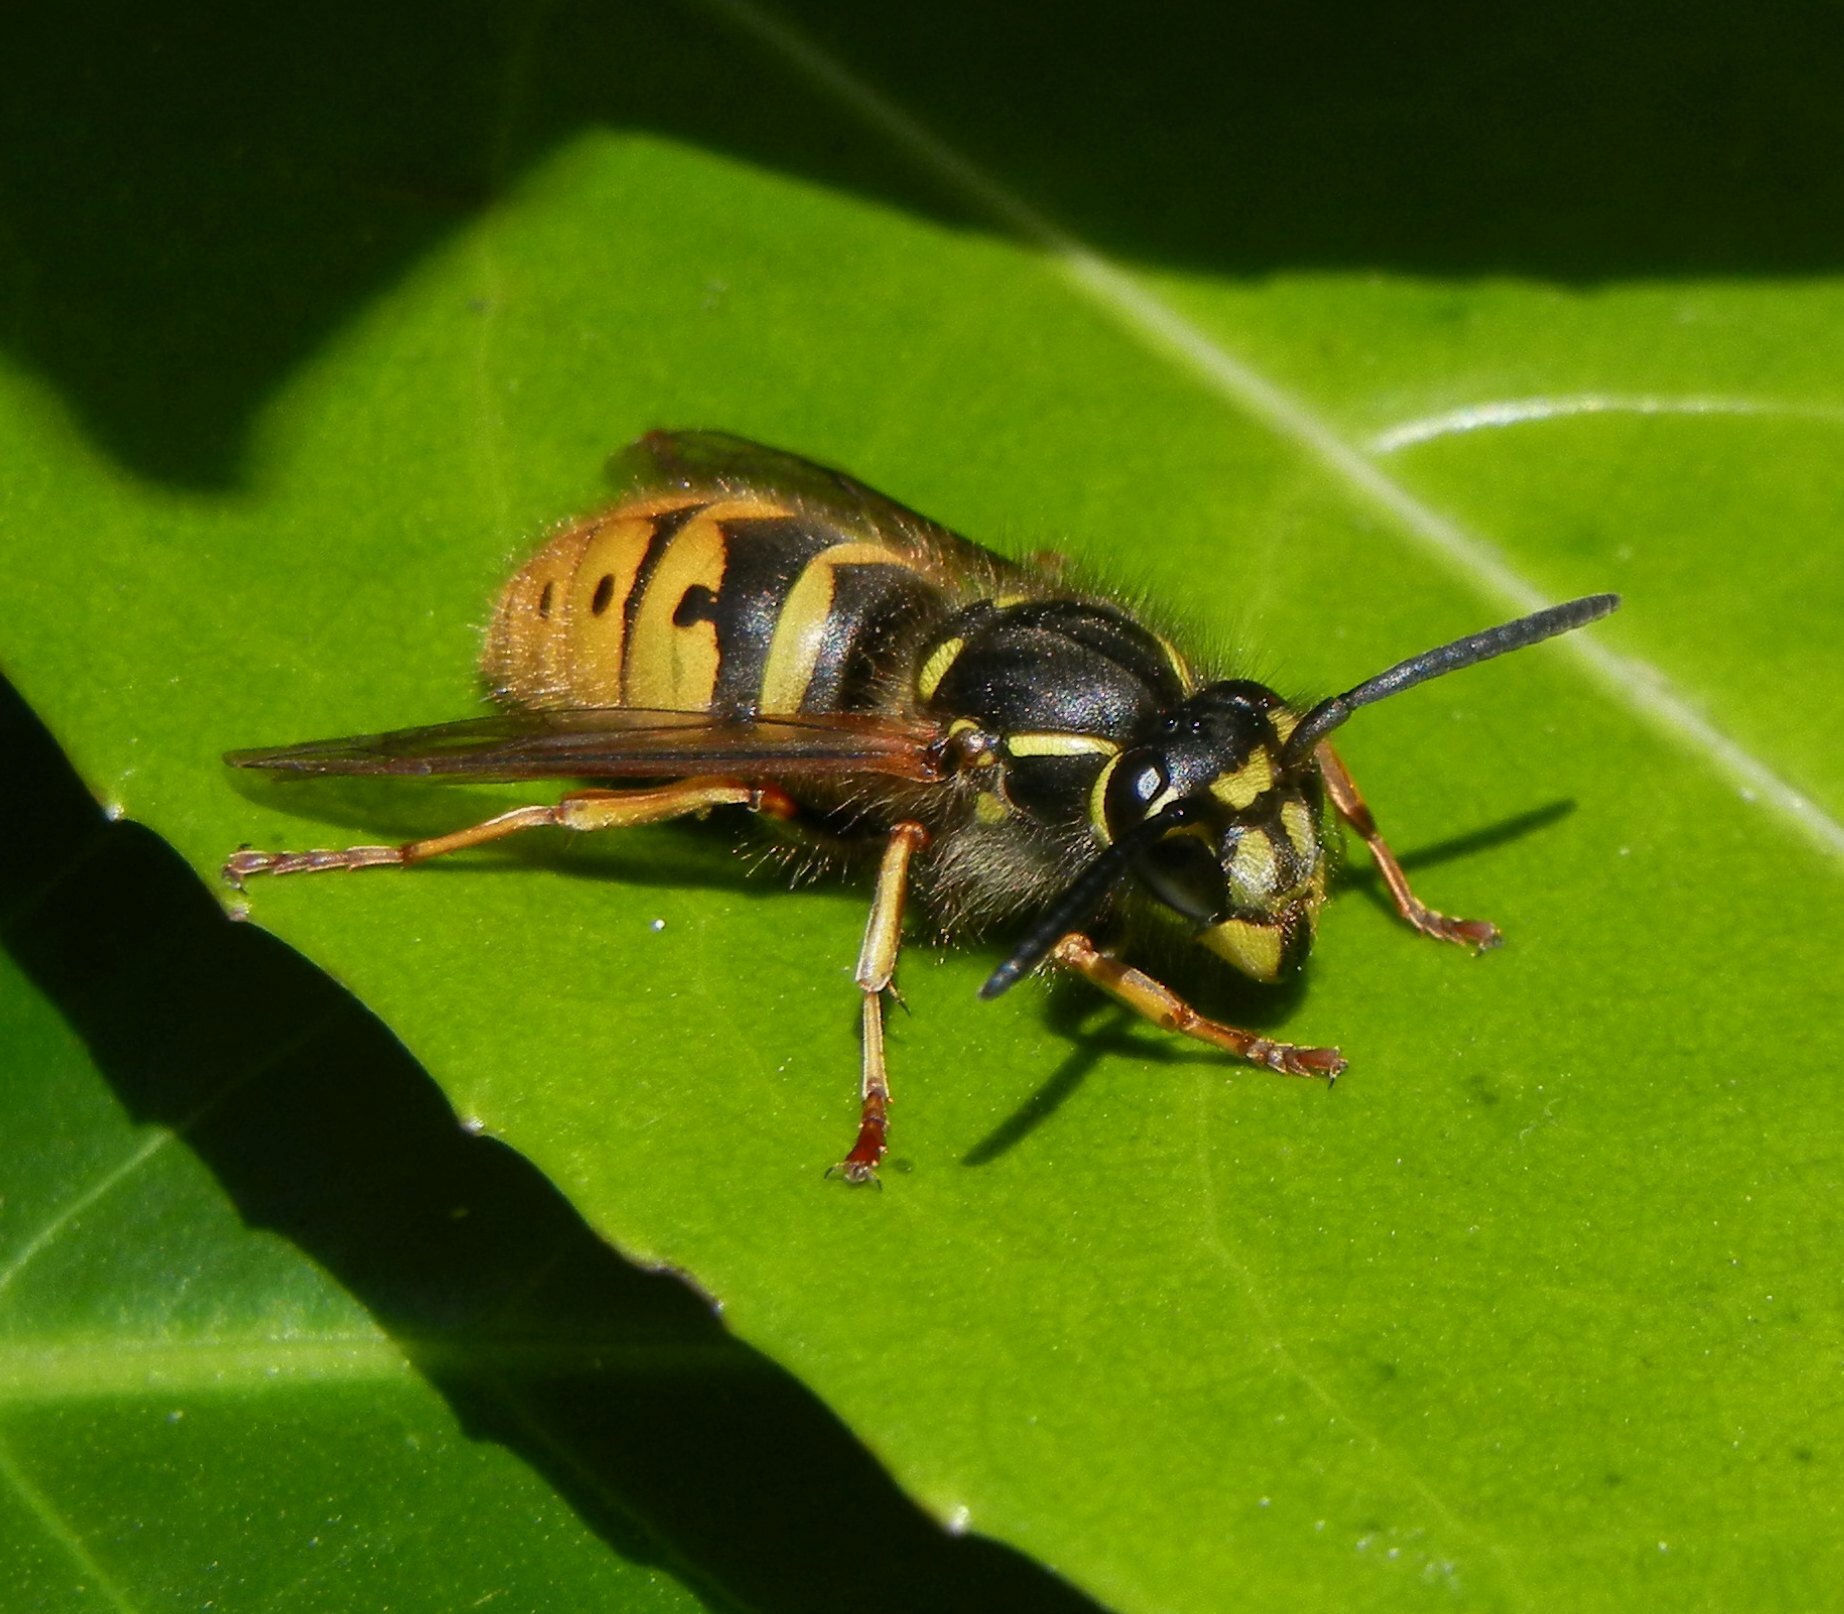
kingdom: Animalia
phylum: Arthropoda
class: Insecta
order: Hymenoptera
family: Vespidae
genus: Vespula
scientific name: Vespula vulgaris
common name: Common wasp
